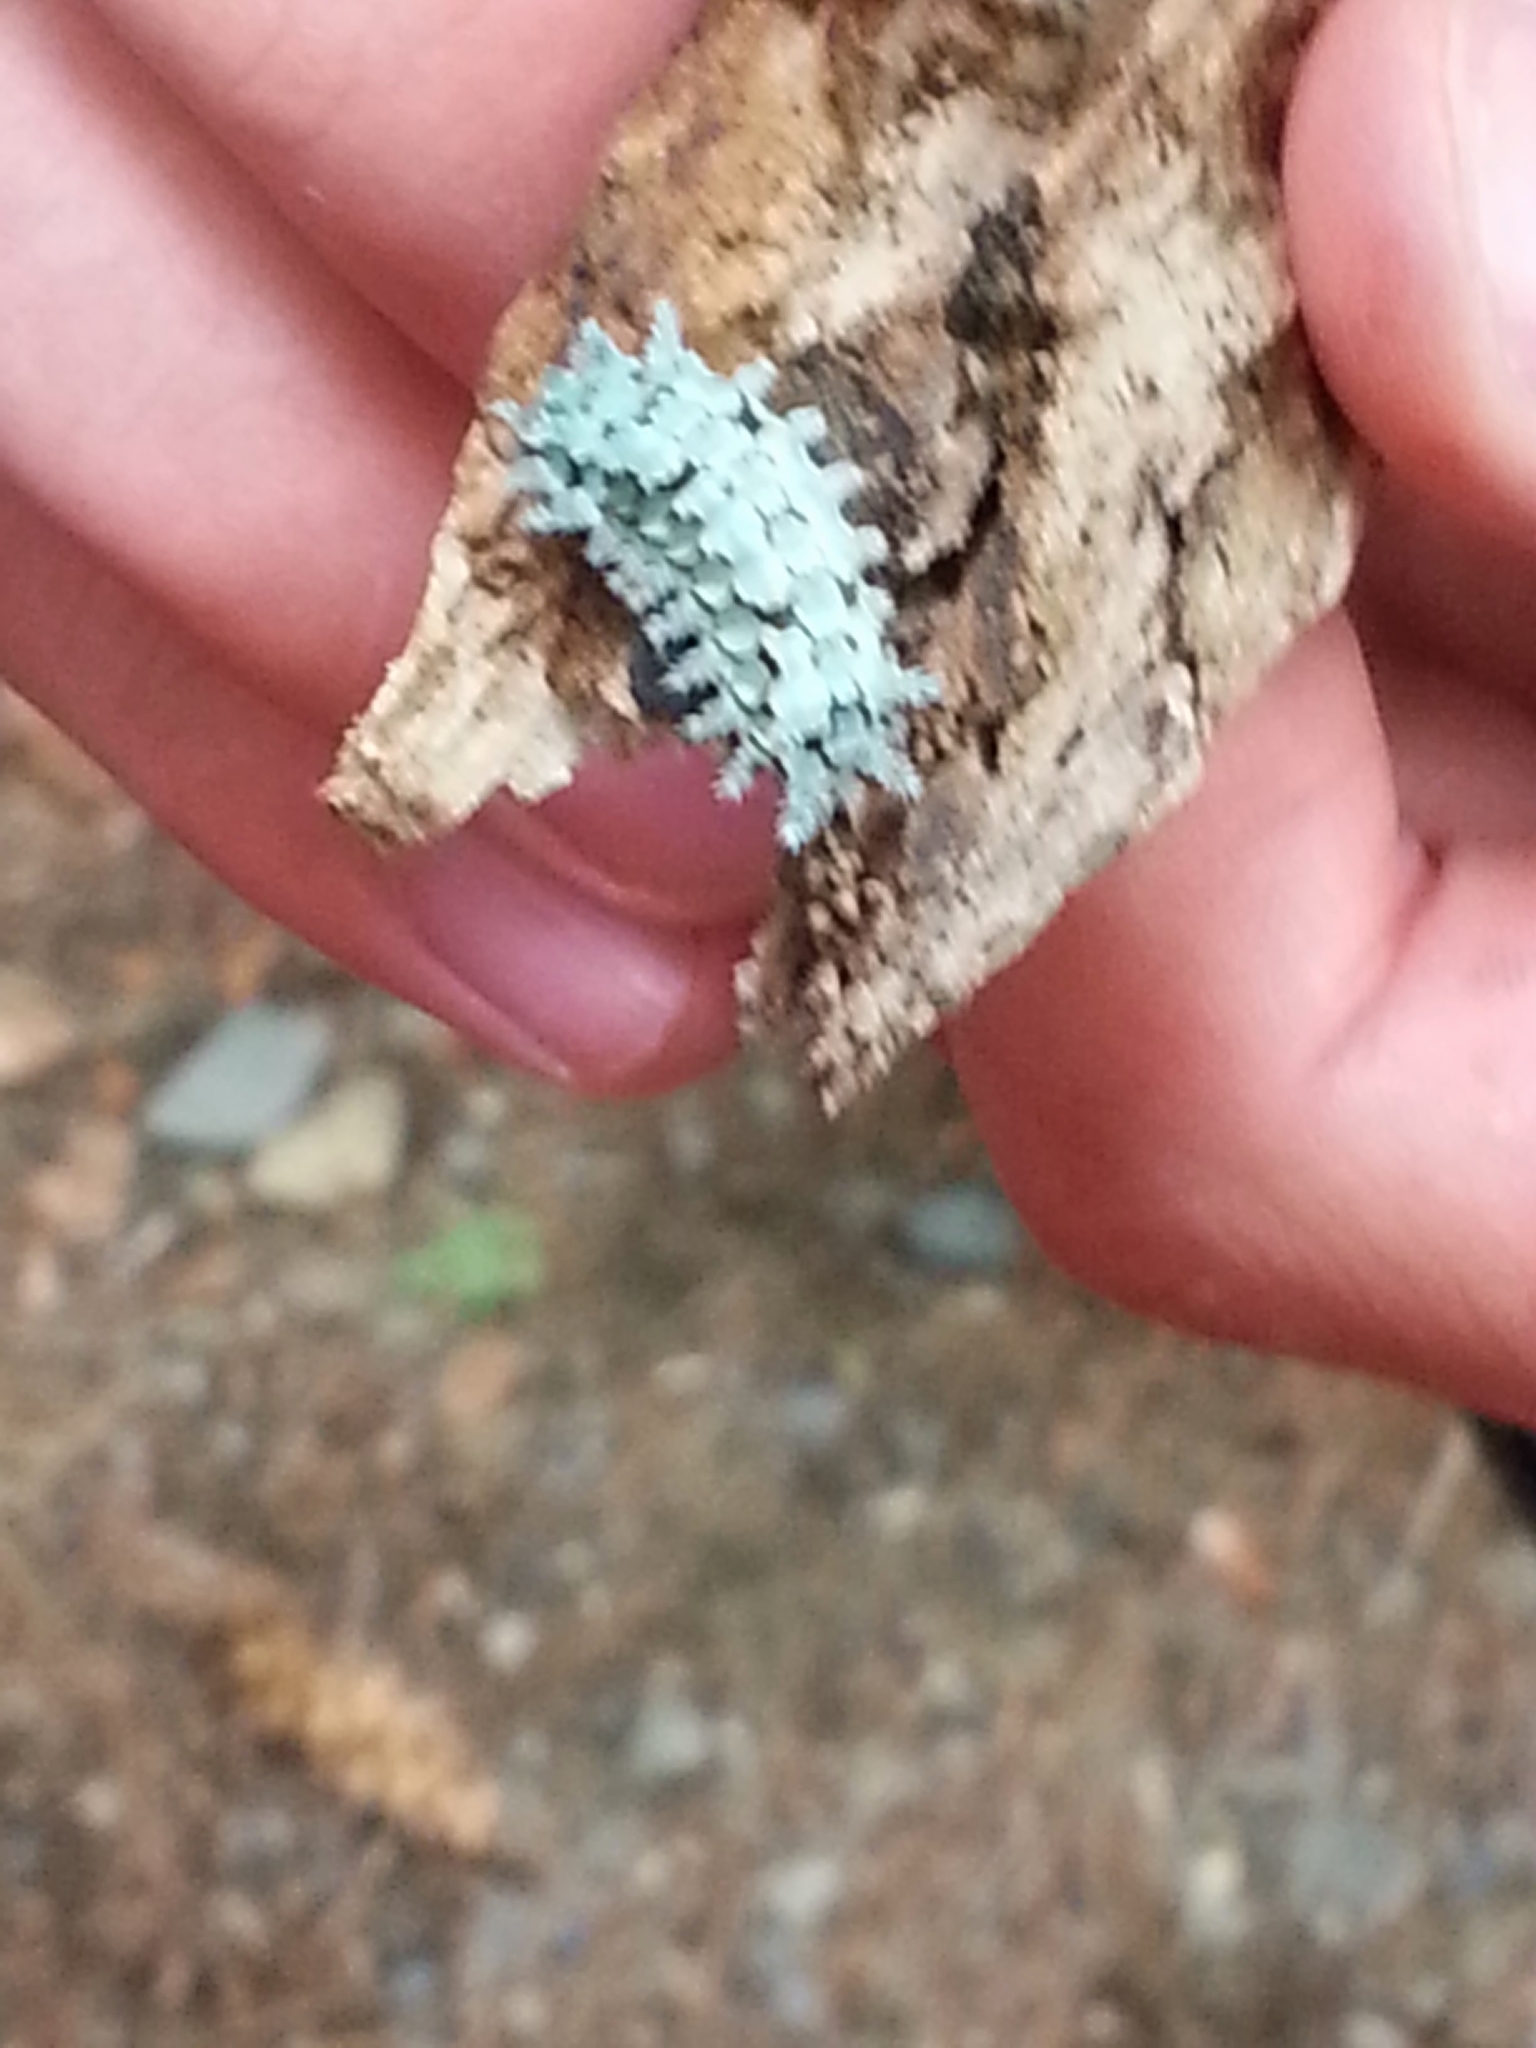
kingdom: Animalia
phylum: Arthropoda
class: Insecta
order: Lepidoptera
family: Limacodidae
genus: Euclea
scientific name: Euclea delphinii
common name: Spiny oak-slug moth
